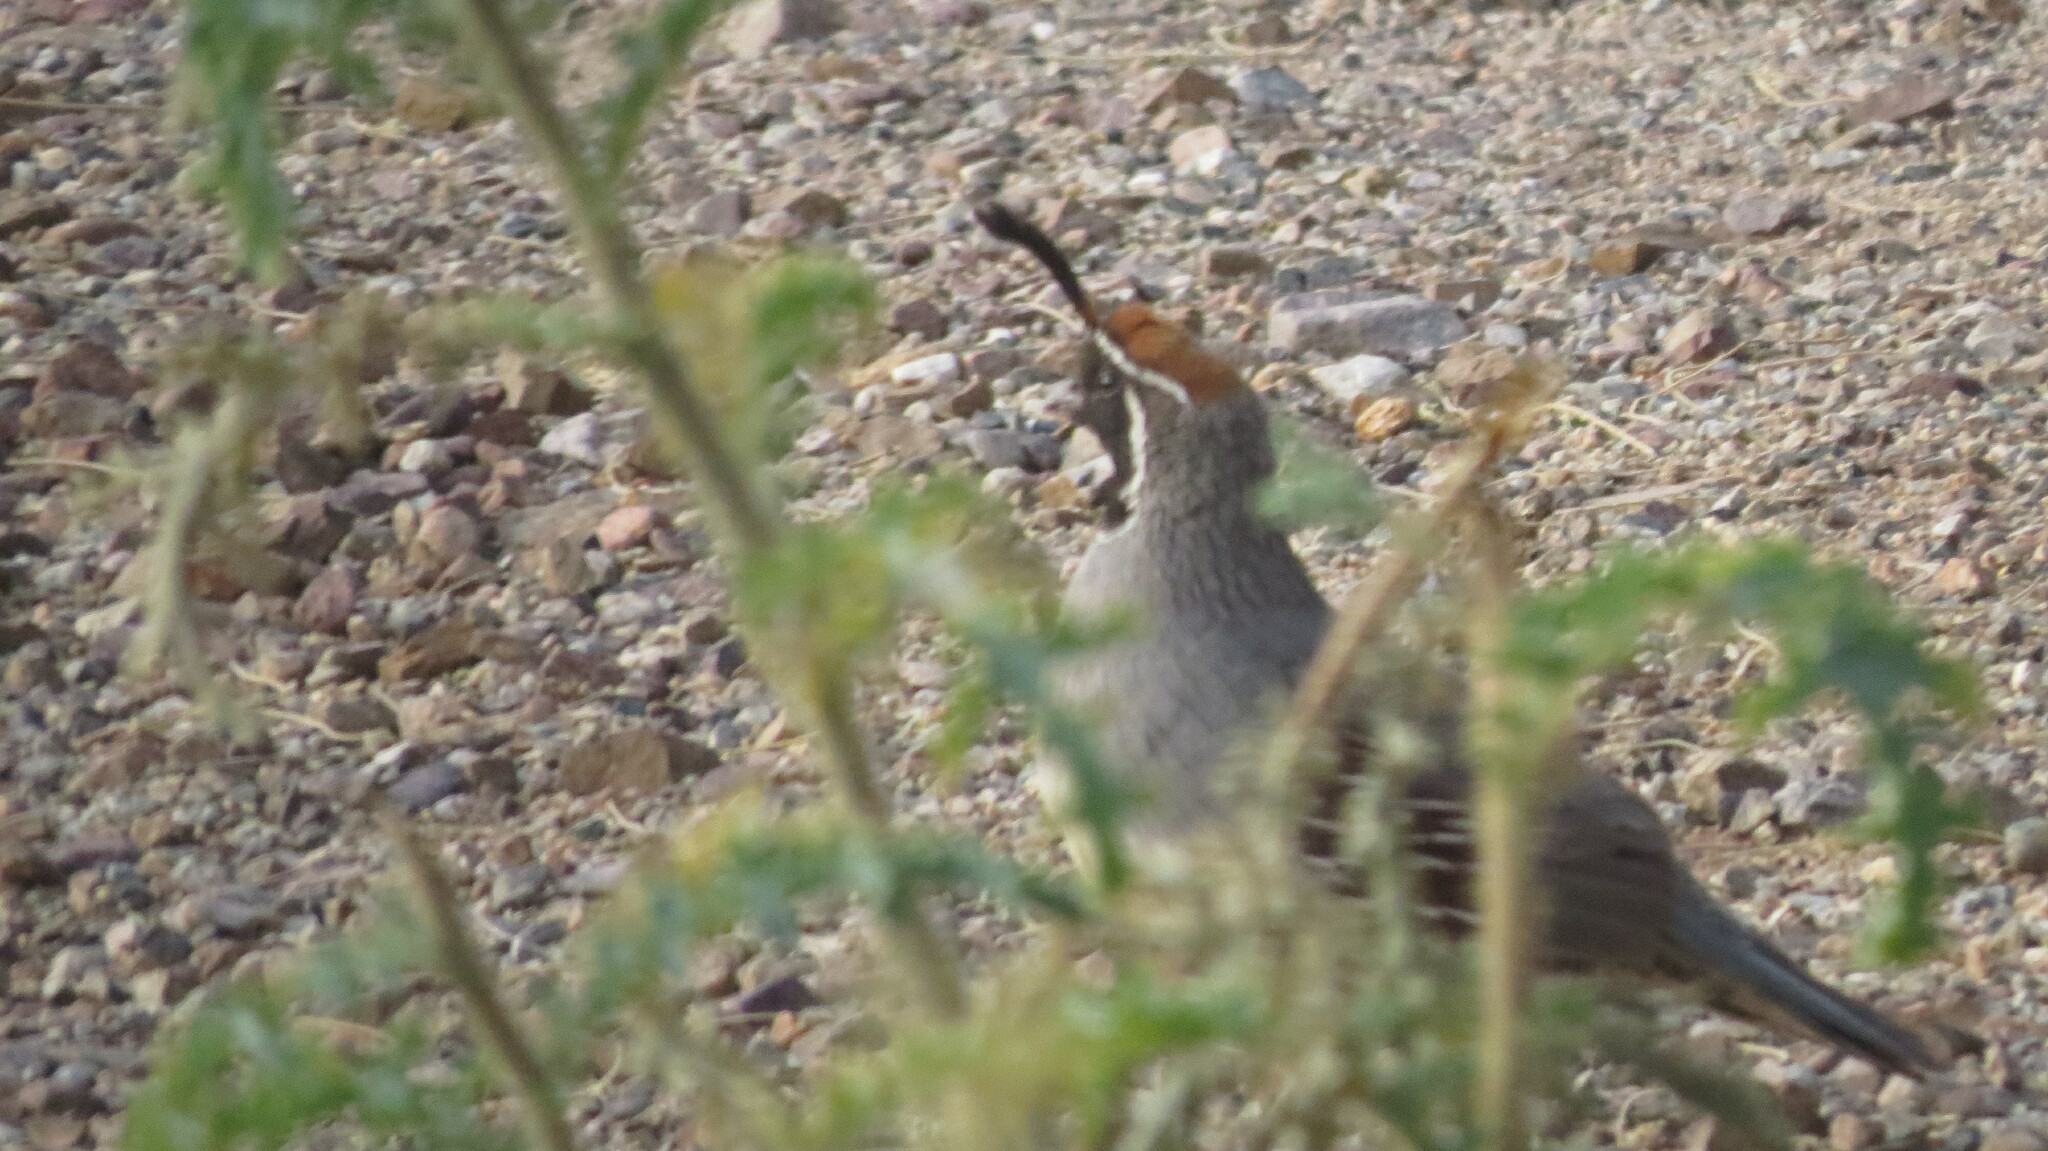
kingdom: Animalia
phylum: Chordata
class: Aves
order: Galliformes
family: Odontophoridae
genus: Callipepla
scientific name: Callipepla gambelii
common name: Gambel's quail
